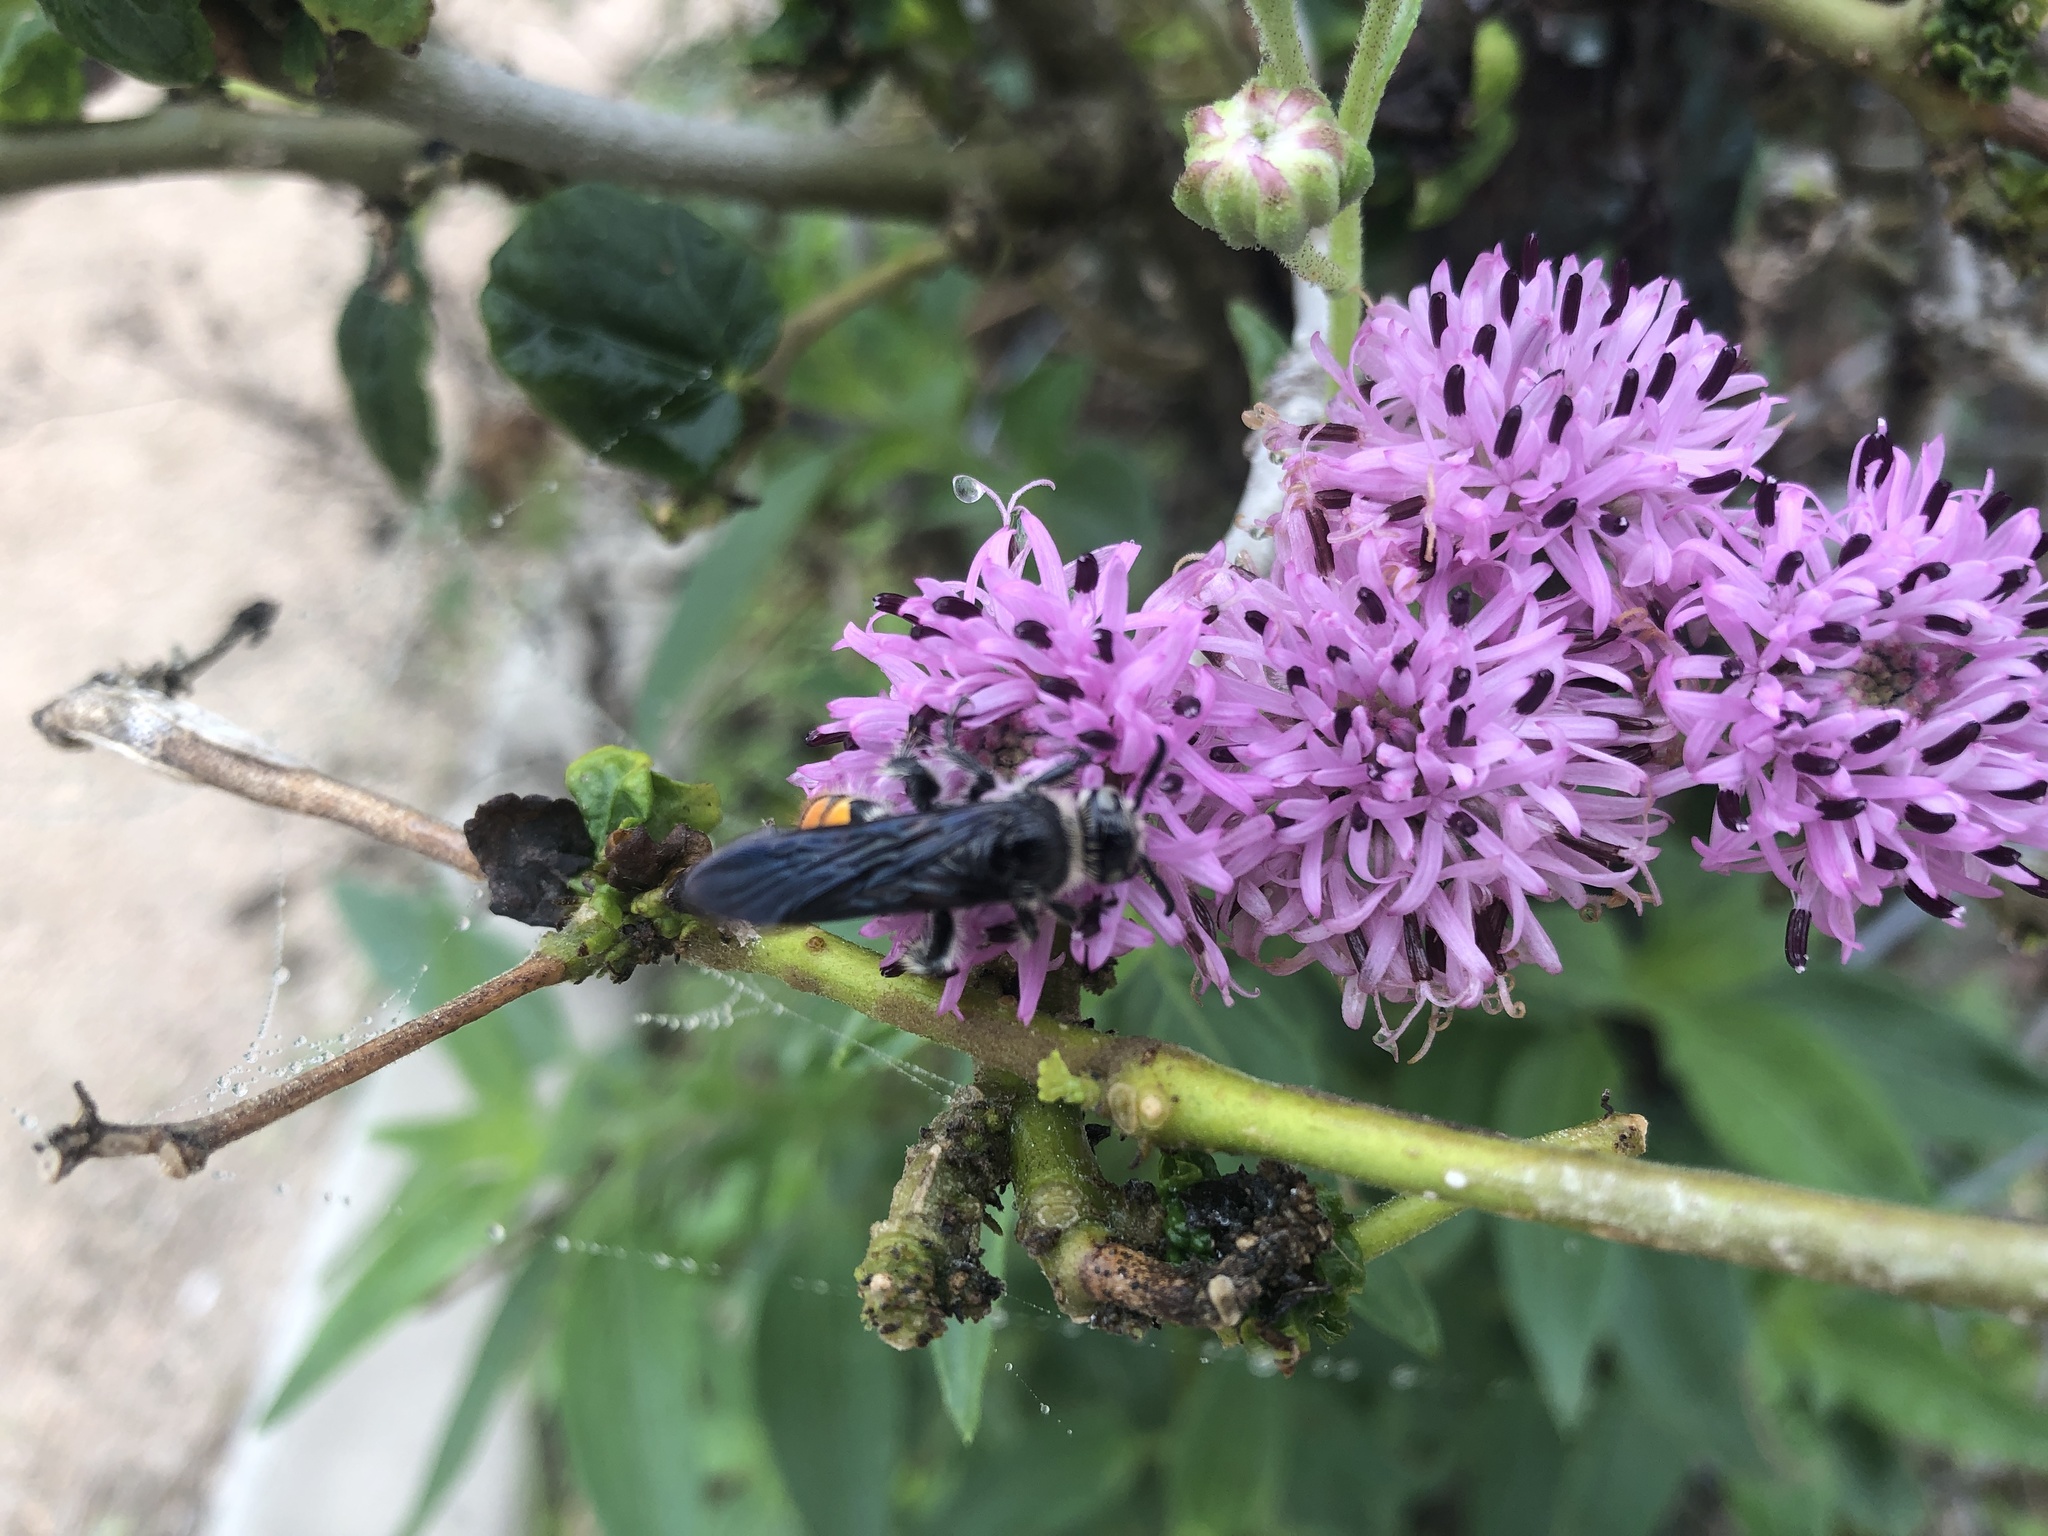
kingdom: Animalia
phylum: Arthropoda
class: Insecta
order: Hymenoptera
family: Scoliidae
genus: Dielis
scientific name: Dielis tolteca
